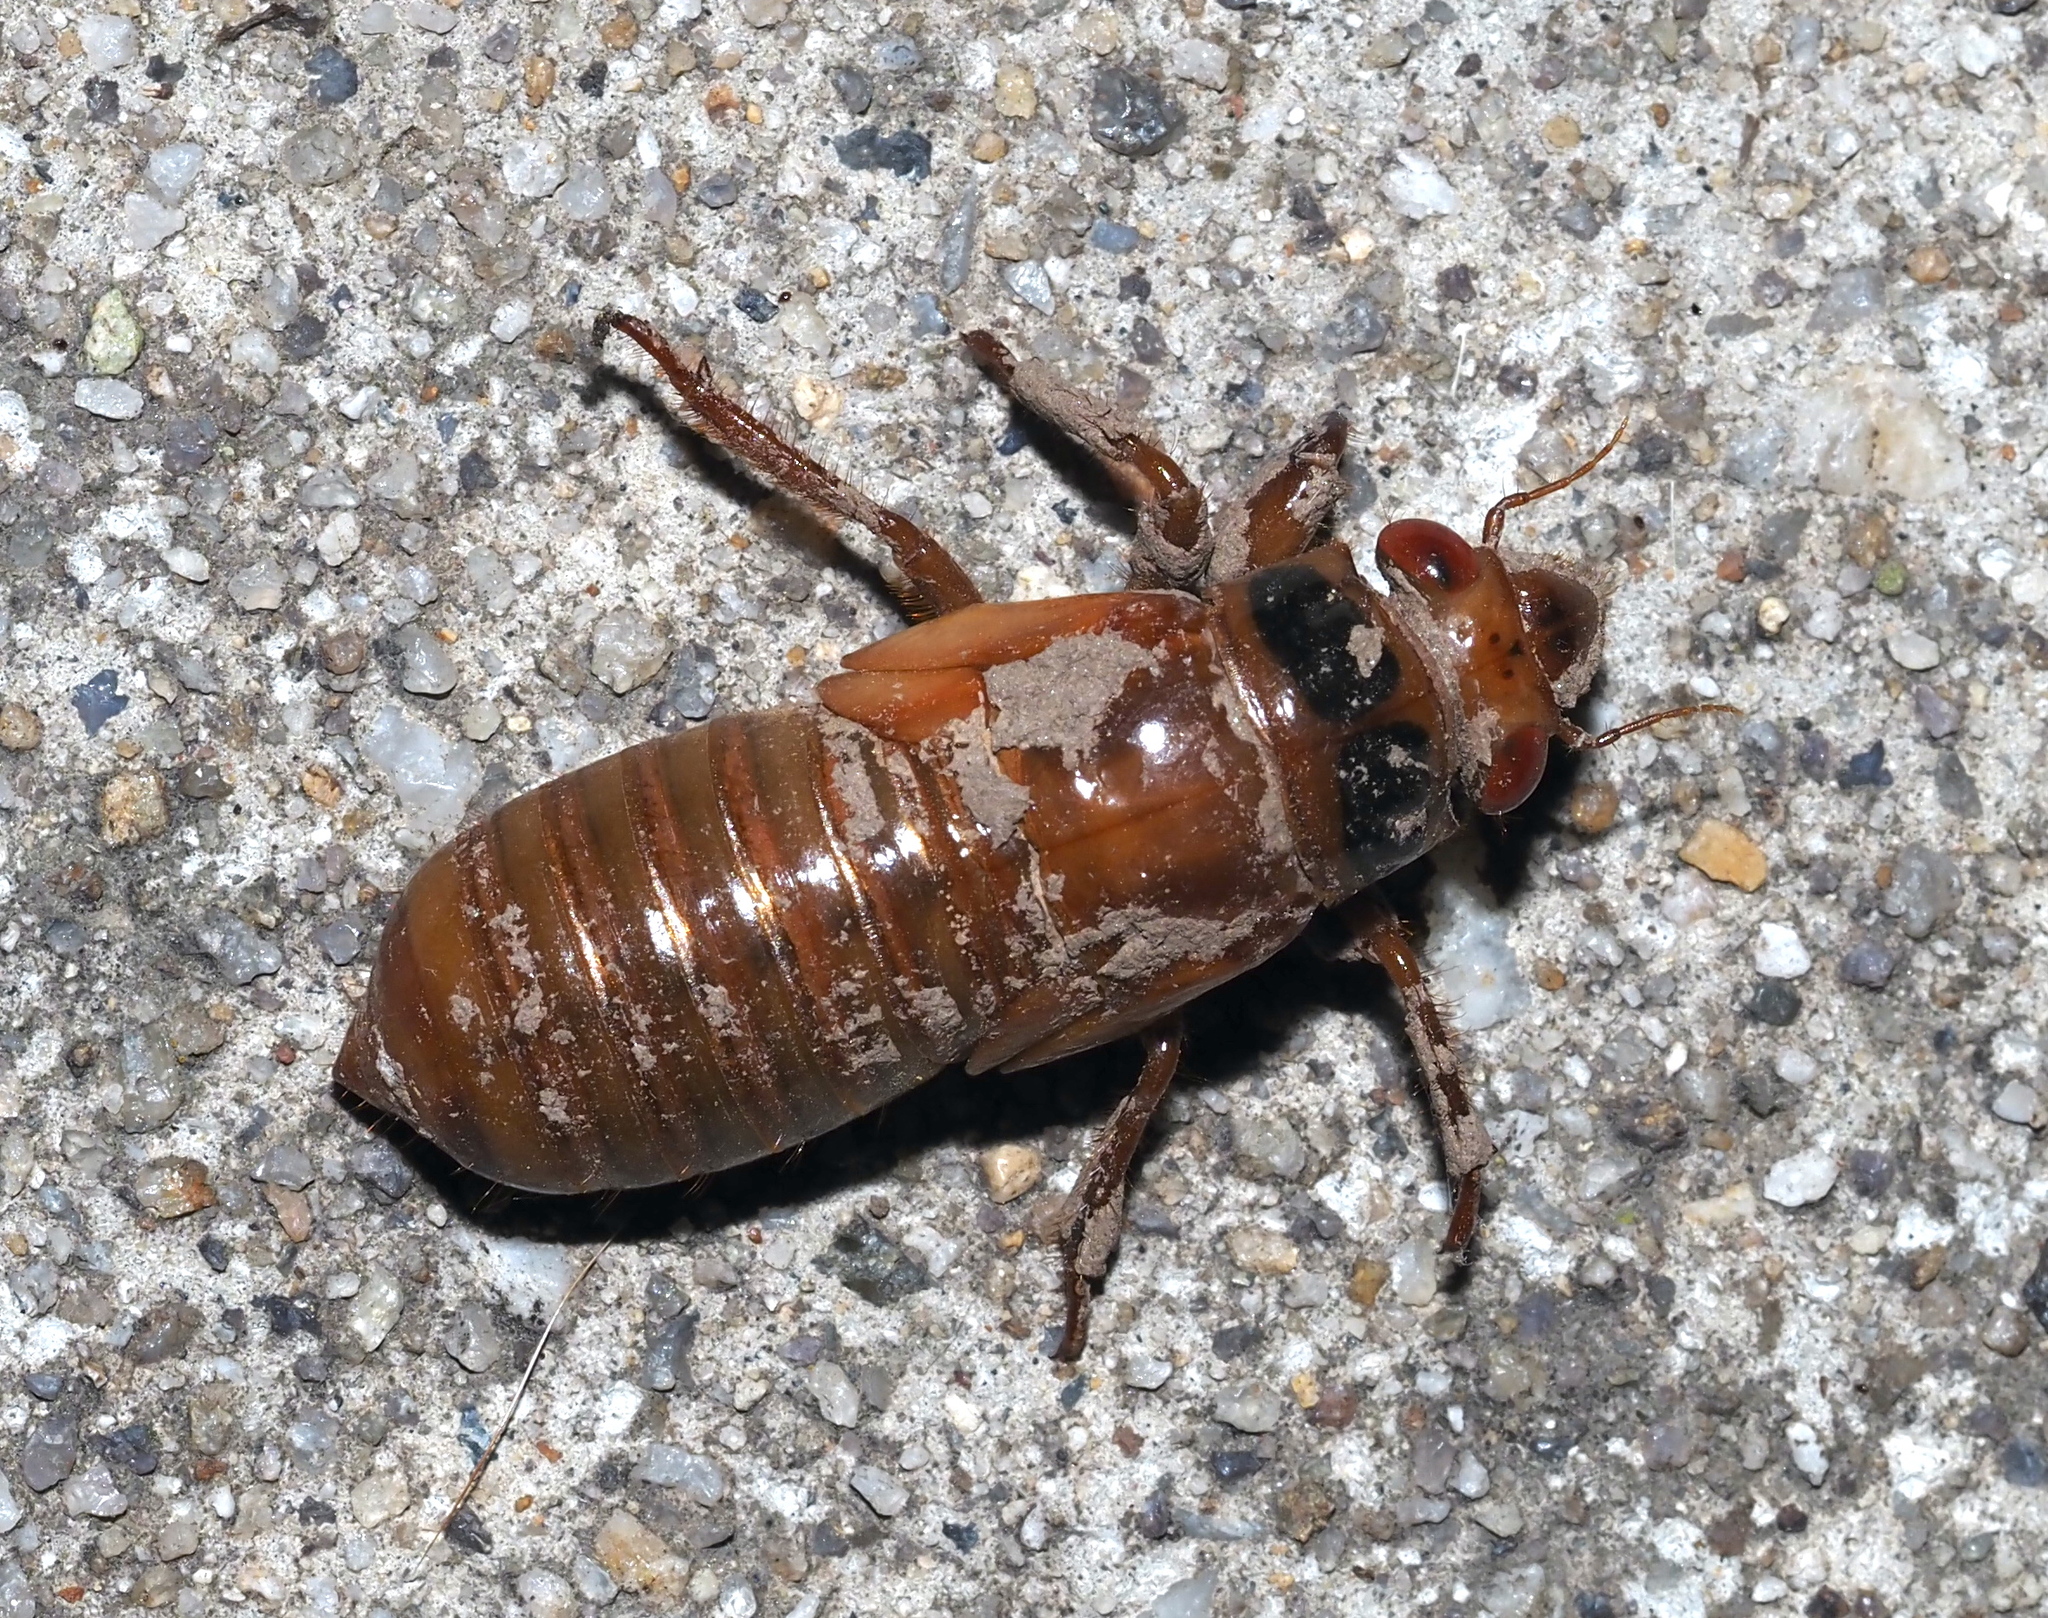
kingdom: Animalia
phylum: Arthropoda
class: Insecta
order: Hemiptera
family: Cicadidae
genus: Magicicada
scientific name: Magicicada
